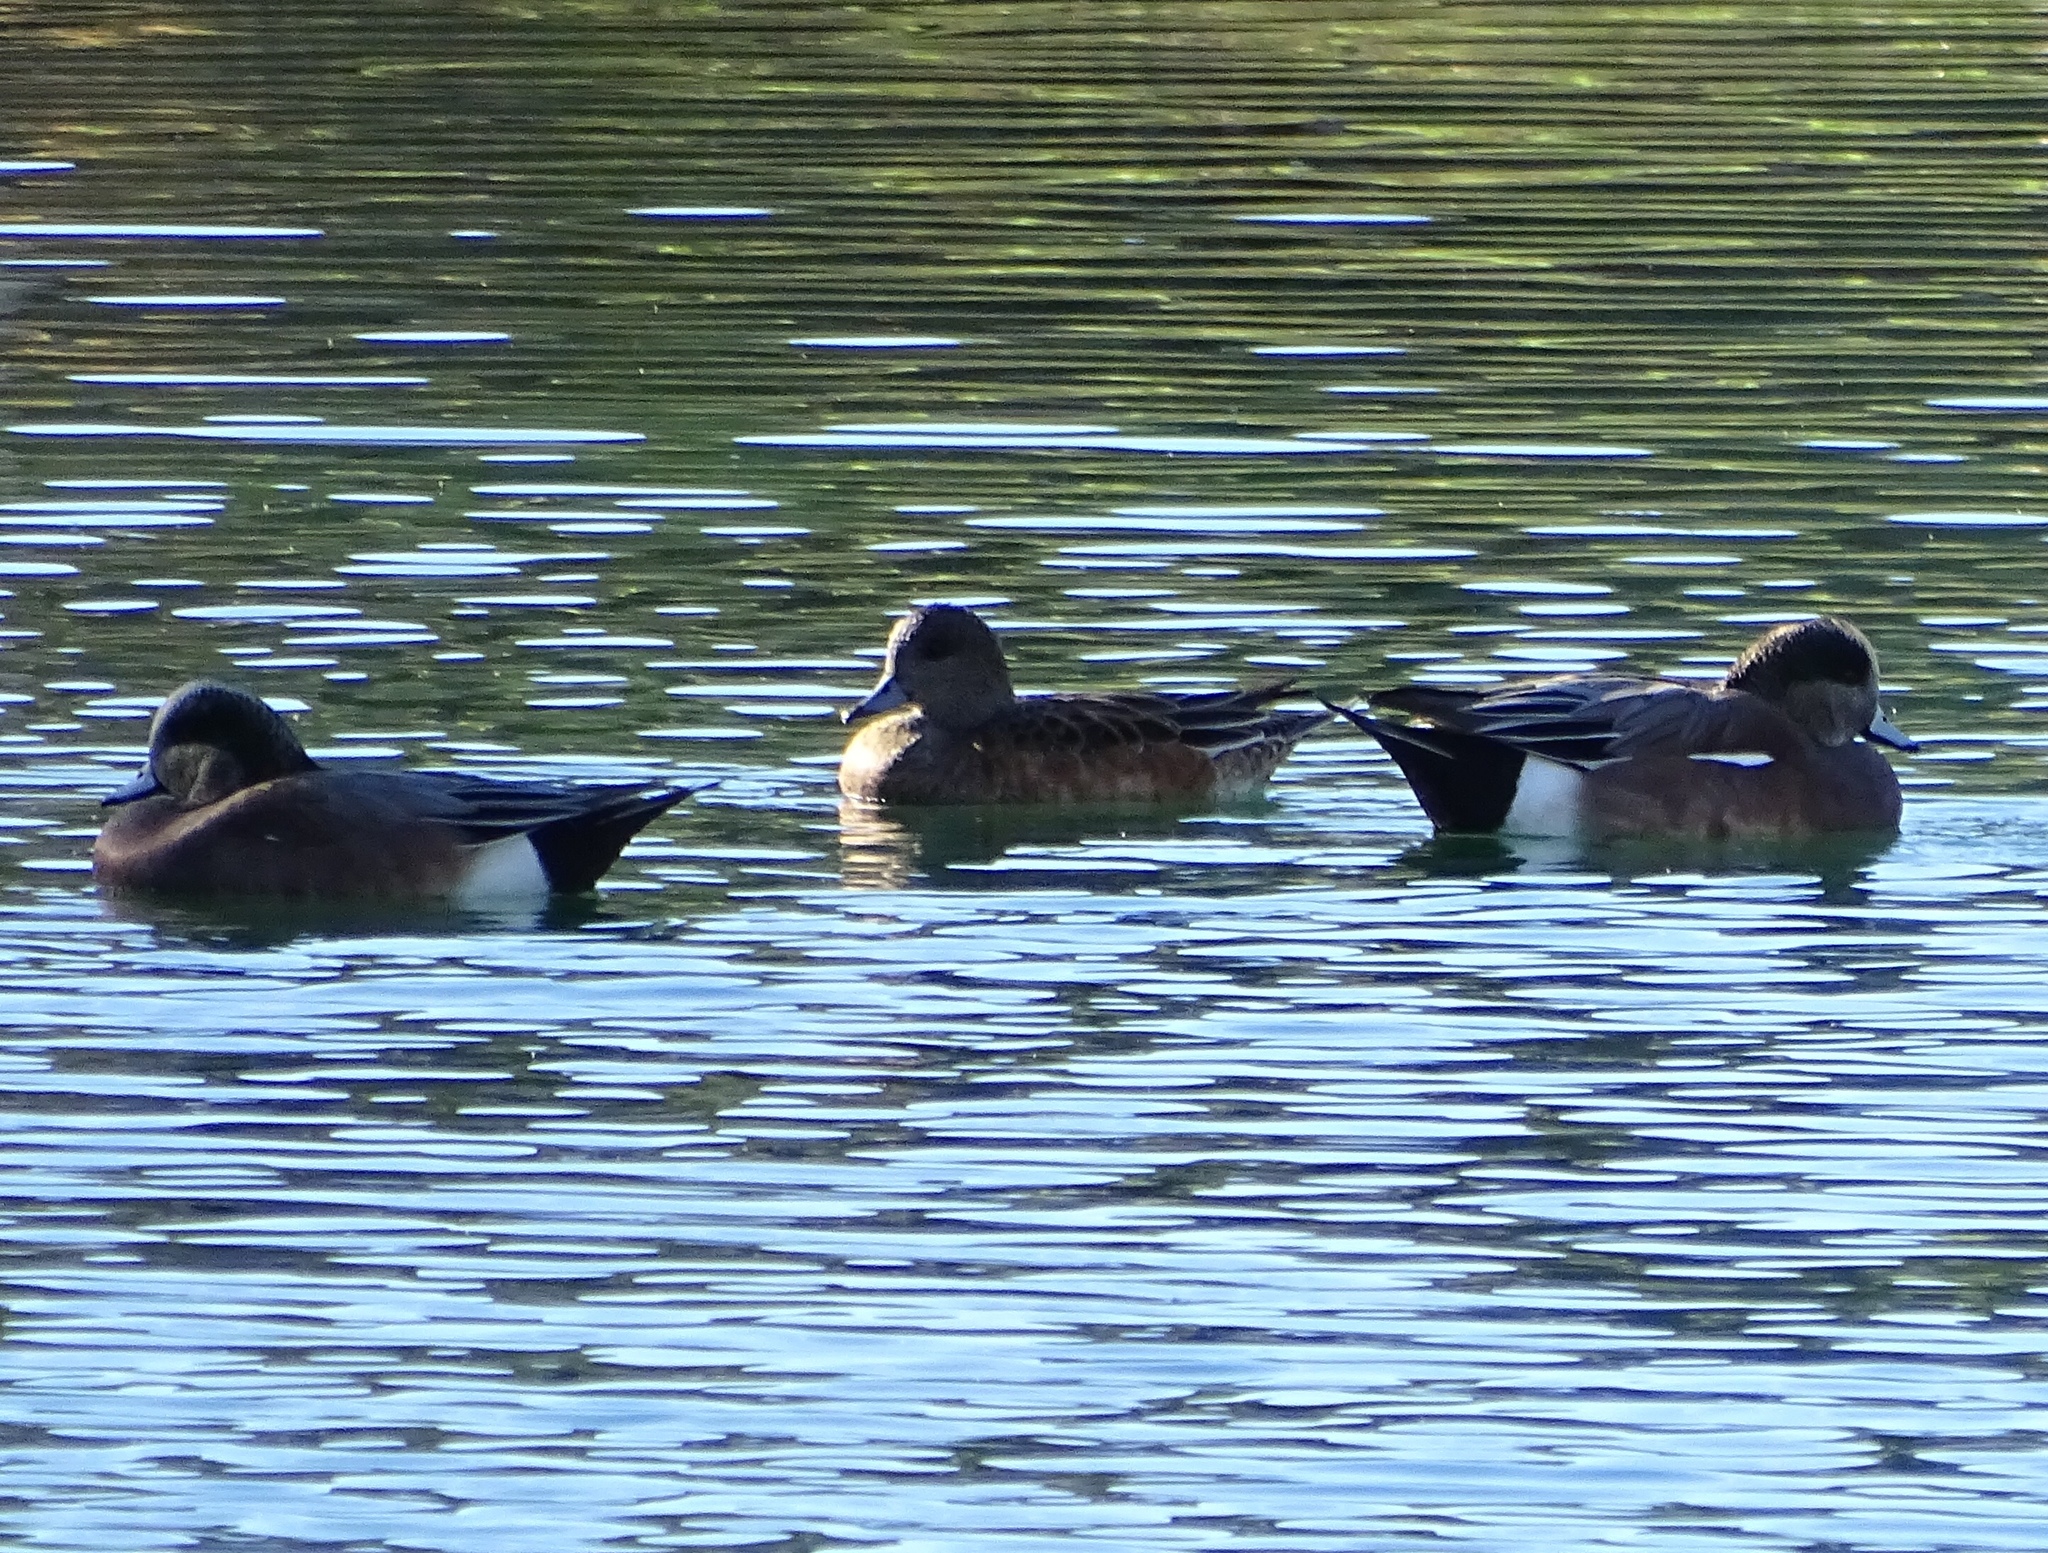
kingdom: Animalia
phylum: Chordata
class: Aves
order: Anseriformes
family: Anatidae
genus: Mareca
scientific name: Mareca americana
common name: American wigeon
